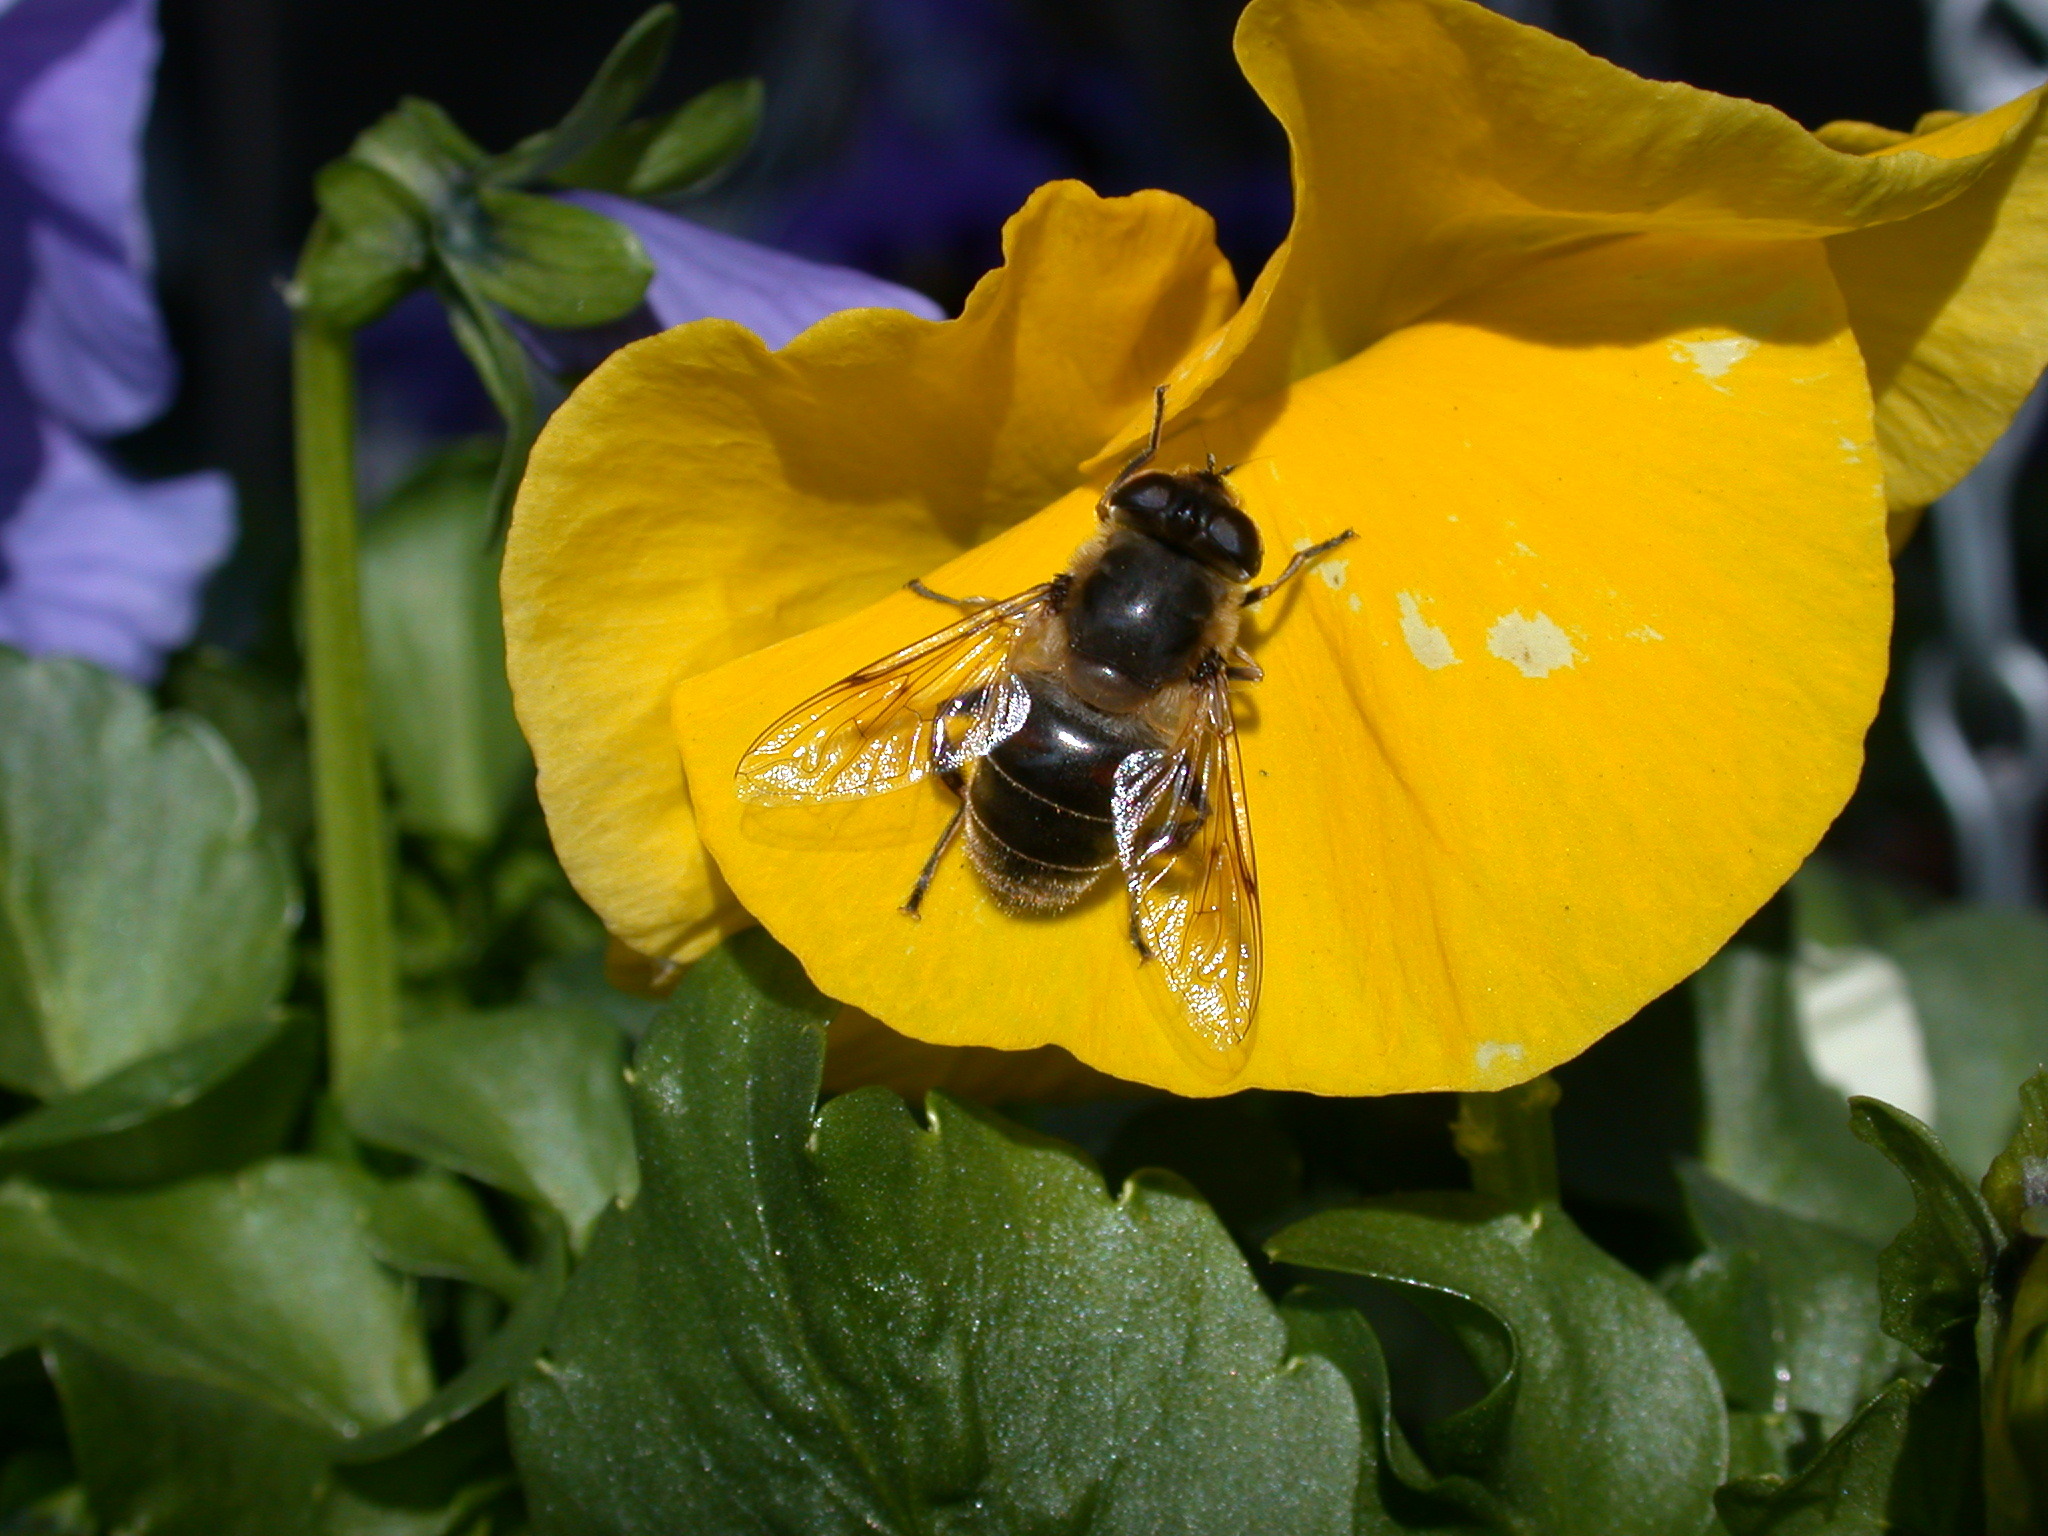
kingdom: Animalia
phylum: Arthropoda
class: Insecta
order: Diptera
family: Syrphidae
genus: Eristalis
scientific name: Eristalis tenax
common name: Drone fly
